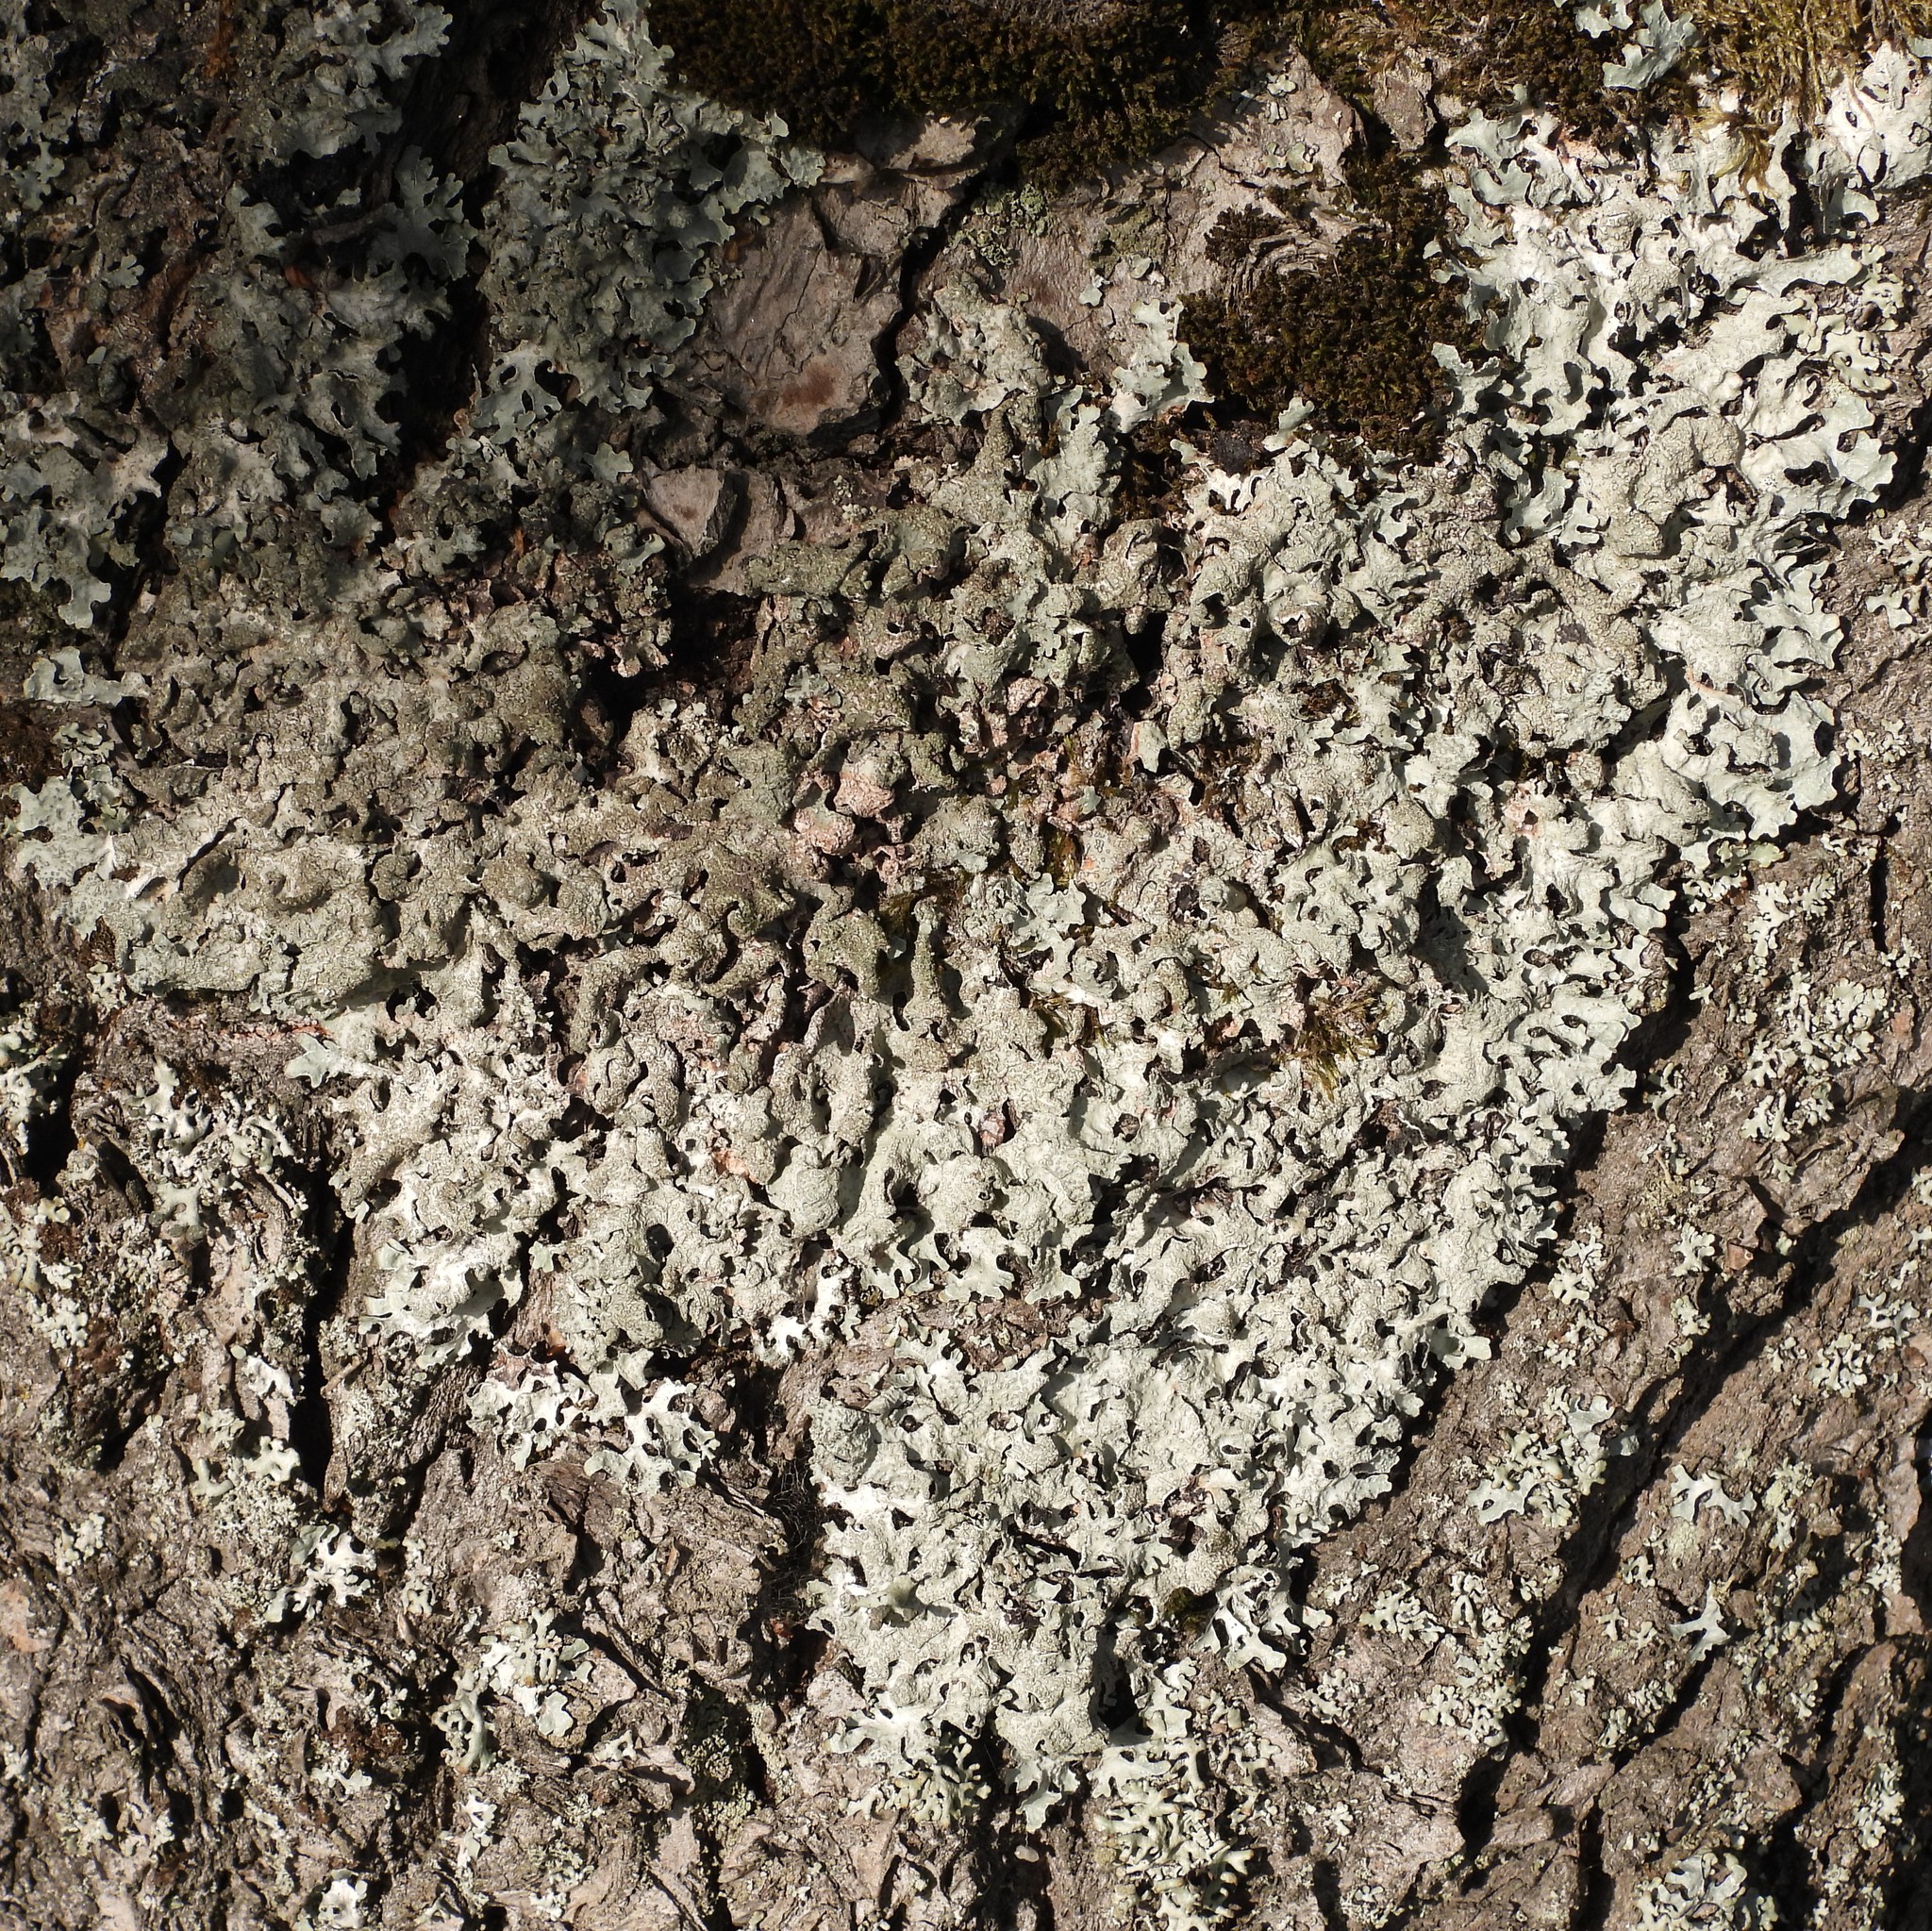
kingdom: Fungi
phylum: Ascomycota
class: Lecanoromycetes
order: Lecanorales
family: Parmeliaceae
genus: Parmelia
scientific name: Parmelia sulcata
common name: Netted shield lichen
